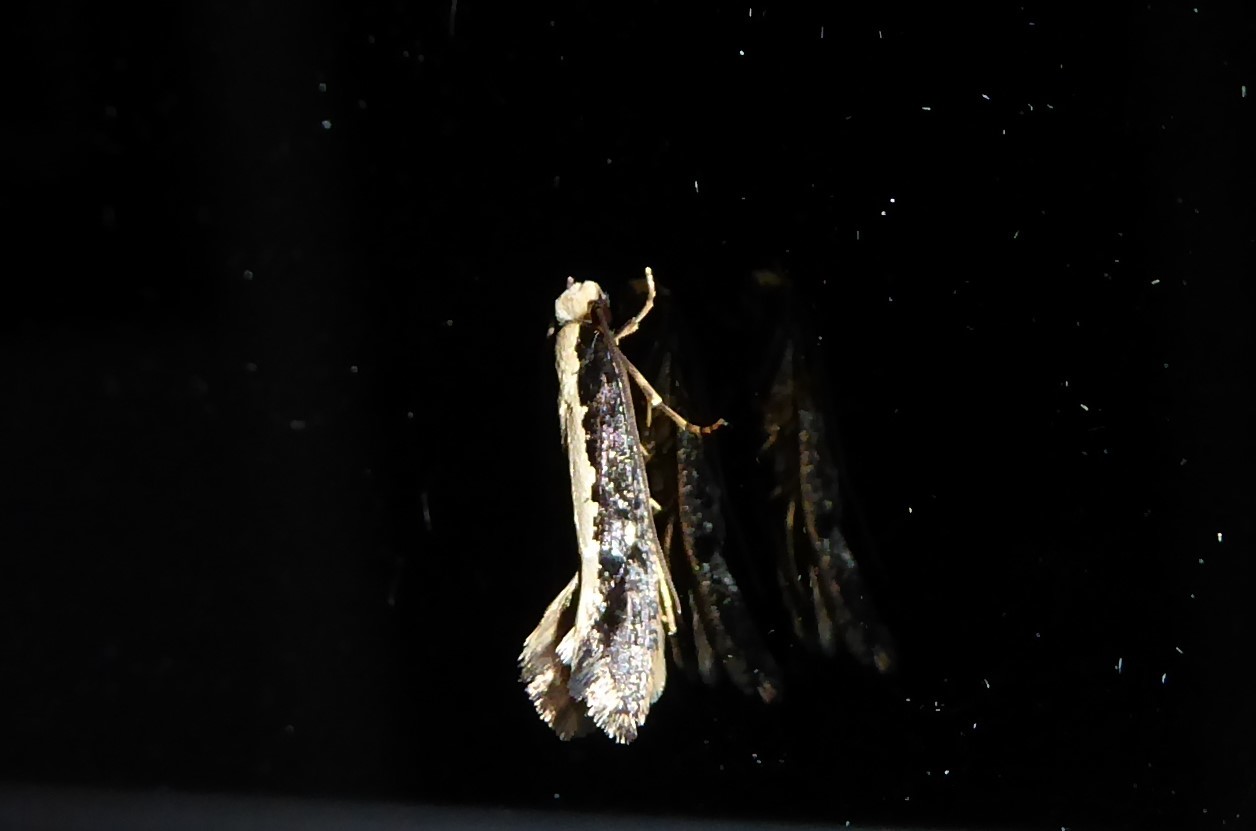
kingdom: Animalia
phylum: Arthropoda
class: Insecta
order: Lepidoptera
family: Tineidae
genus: Monopis
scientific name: Monopis ethelella
